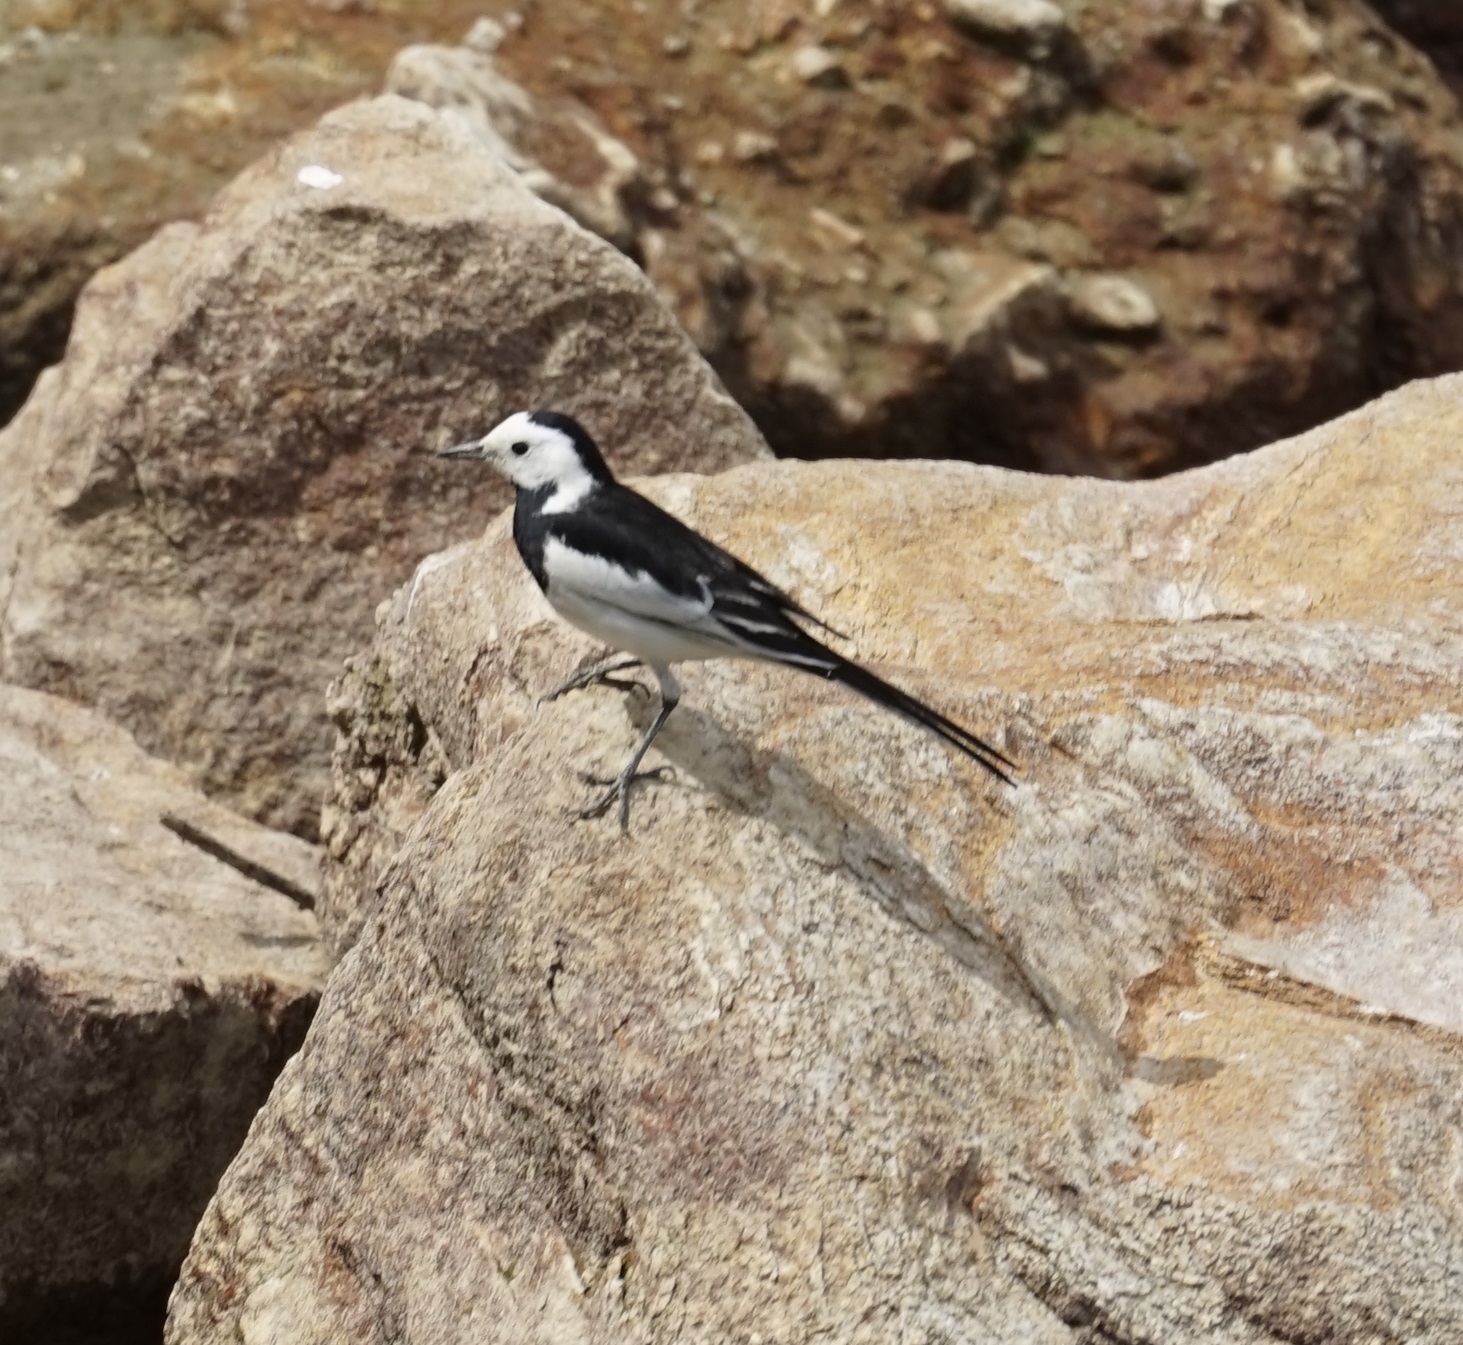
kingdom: Animalia
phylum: Chordata
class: Aves
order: Passeriformes
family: Motacillidae
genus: Motacilla
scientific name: Motacilla alba
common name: White wagtail
